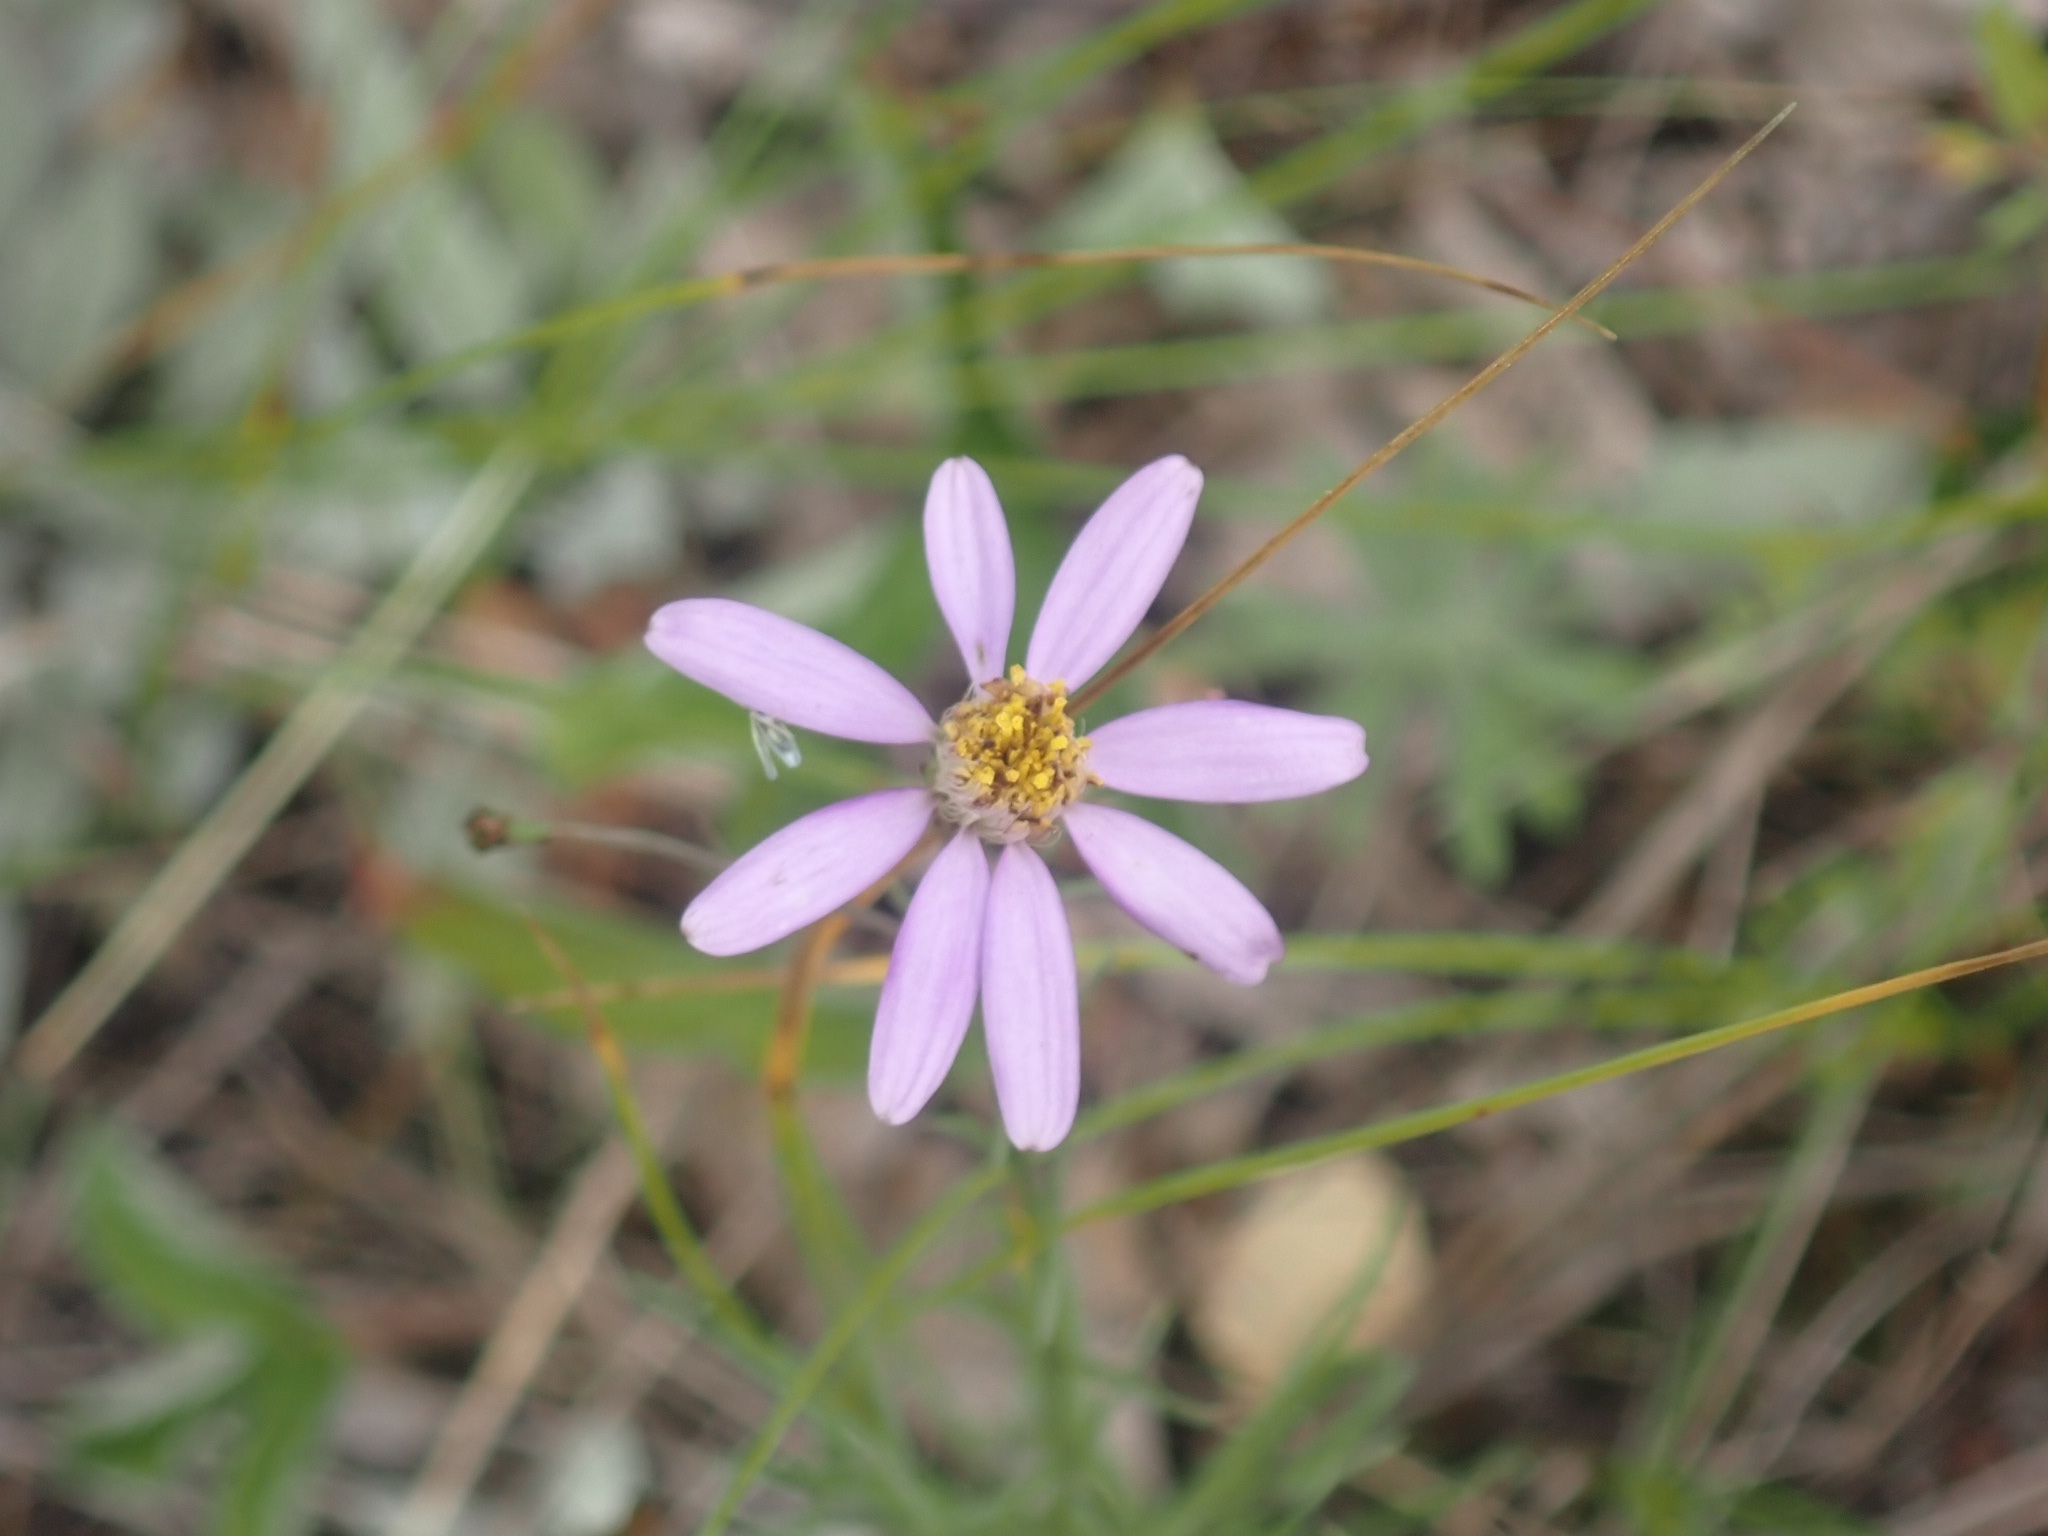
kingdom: Plantae
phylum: Tracheophyta
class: Magnoliopsida
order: Asterales
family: Asteraceae
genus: Galatella
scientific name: Galatella angustissima
